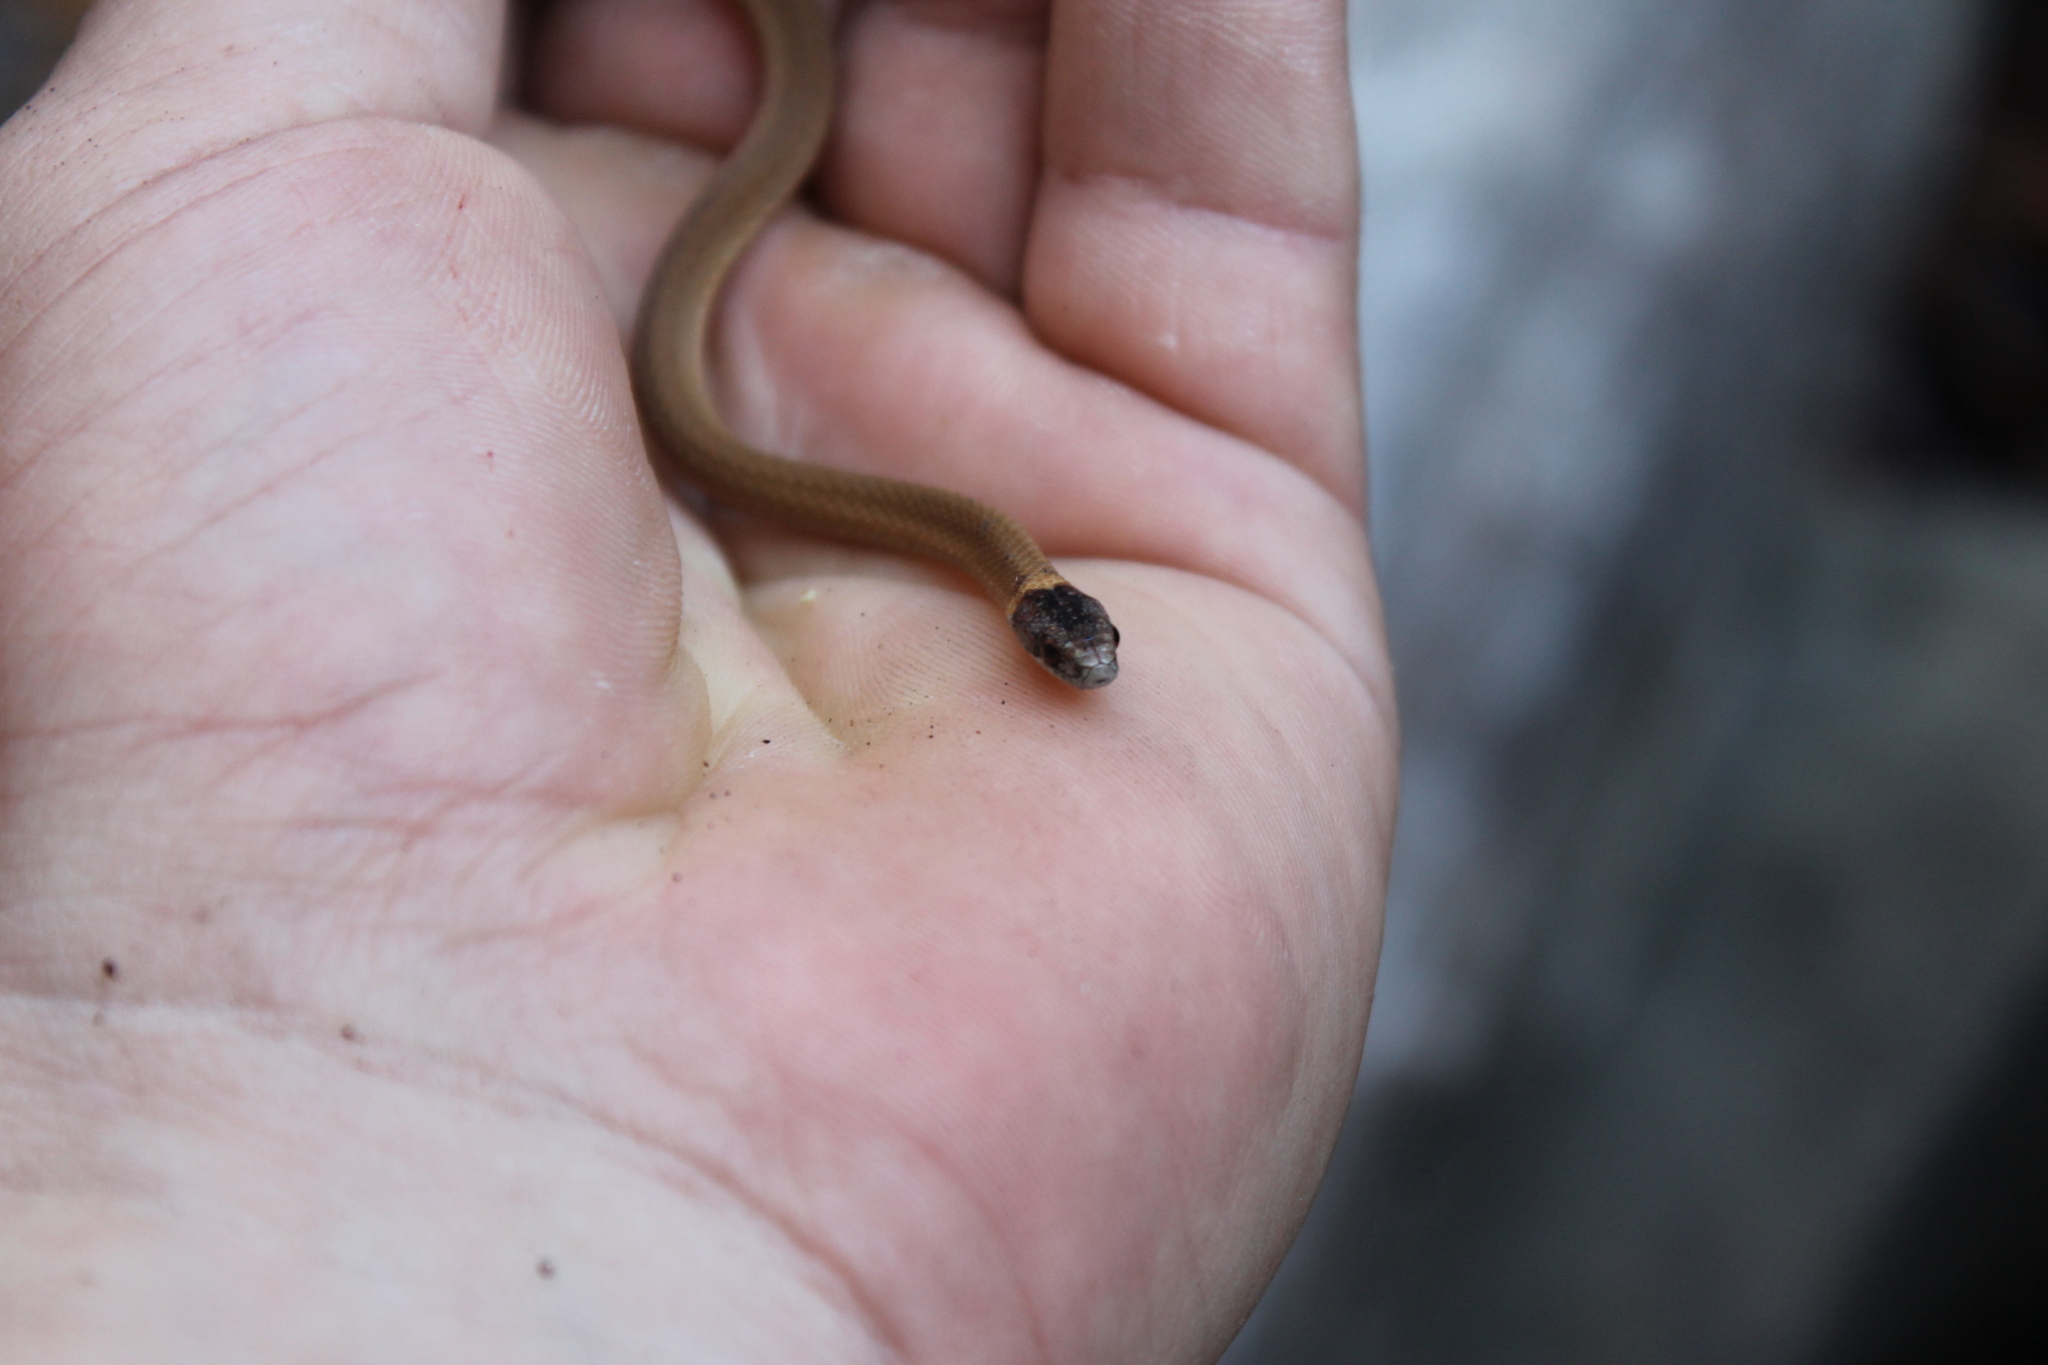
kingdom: Animalia
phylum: Chordata
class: Squamata
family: Colubridae
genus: Storeria
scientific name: Storeria occipitomaculata
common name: Redbelly snake
